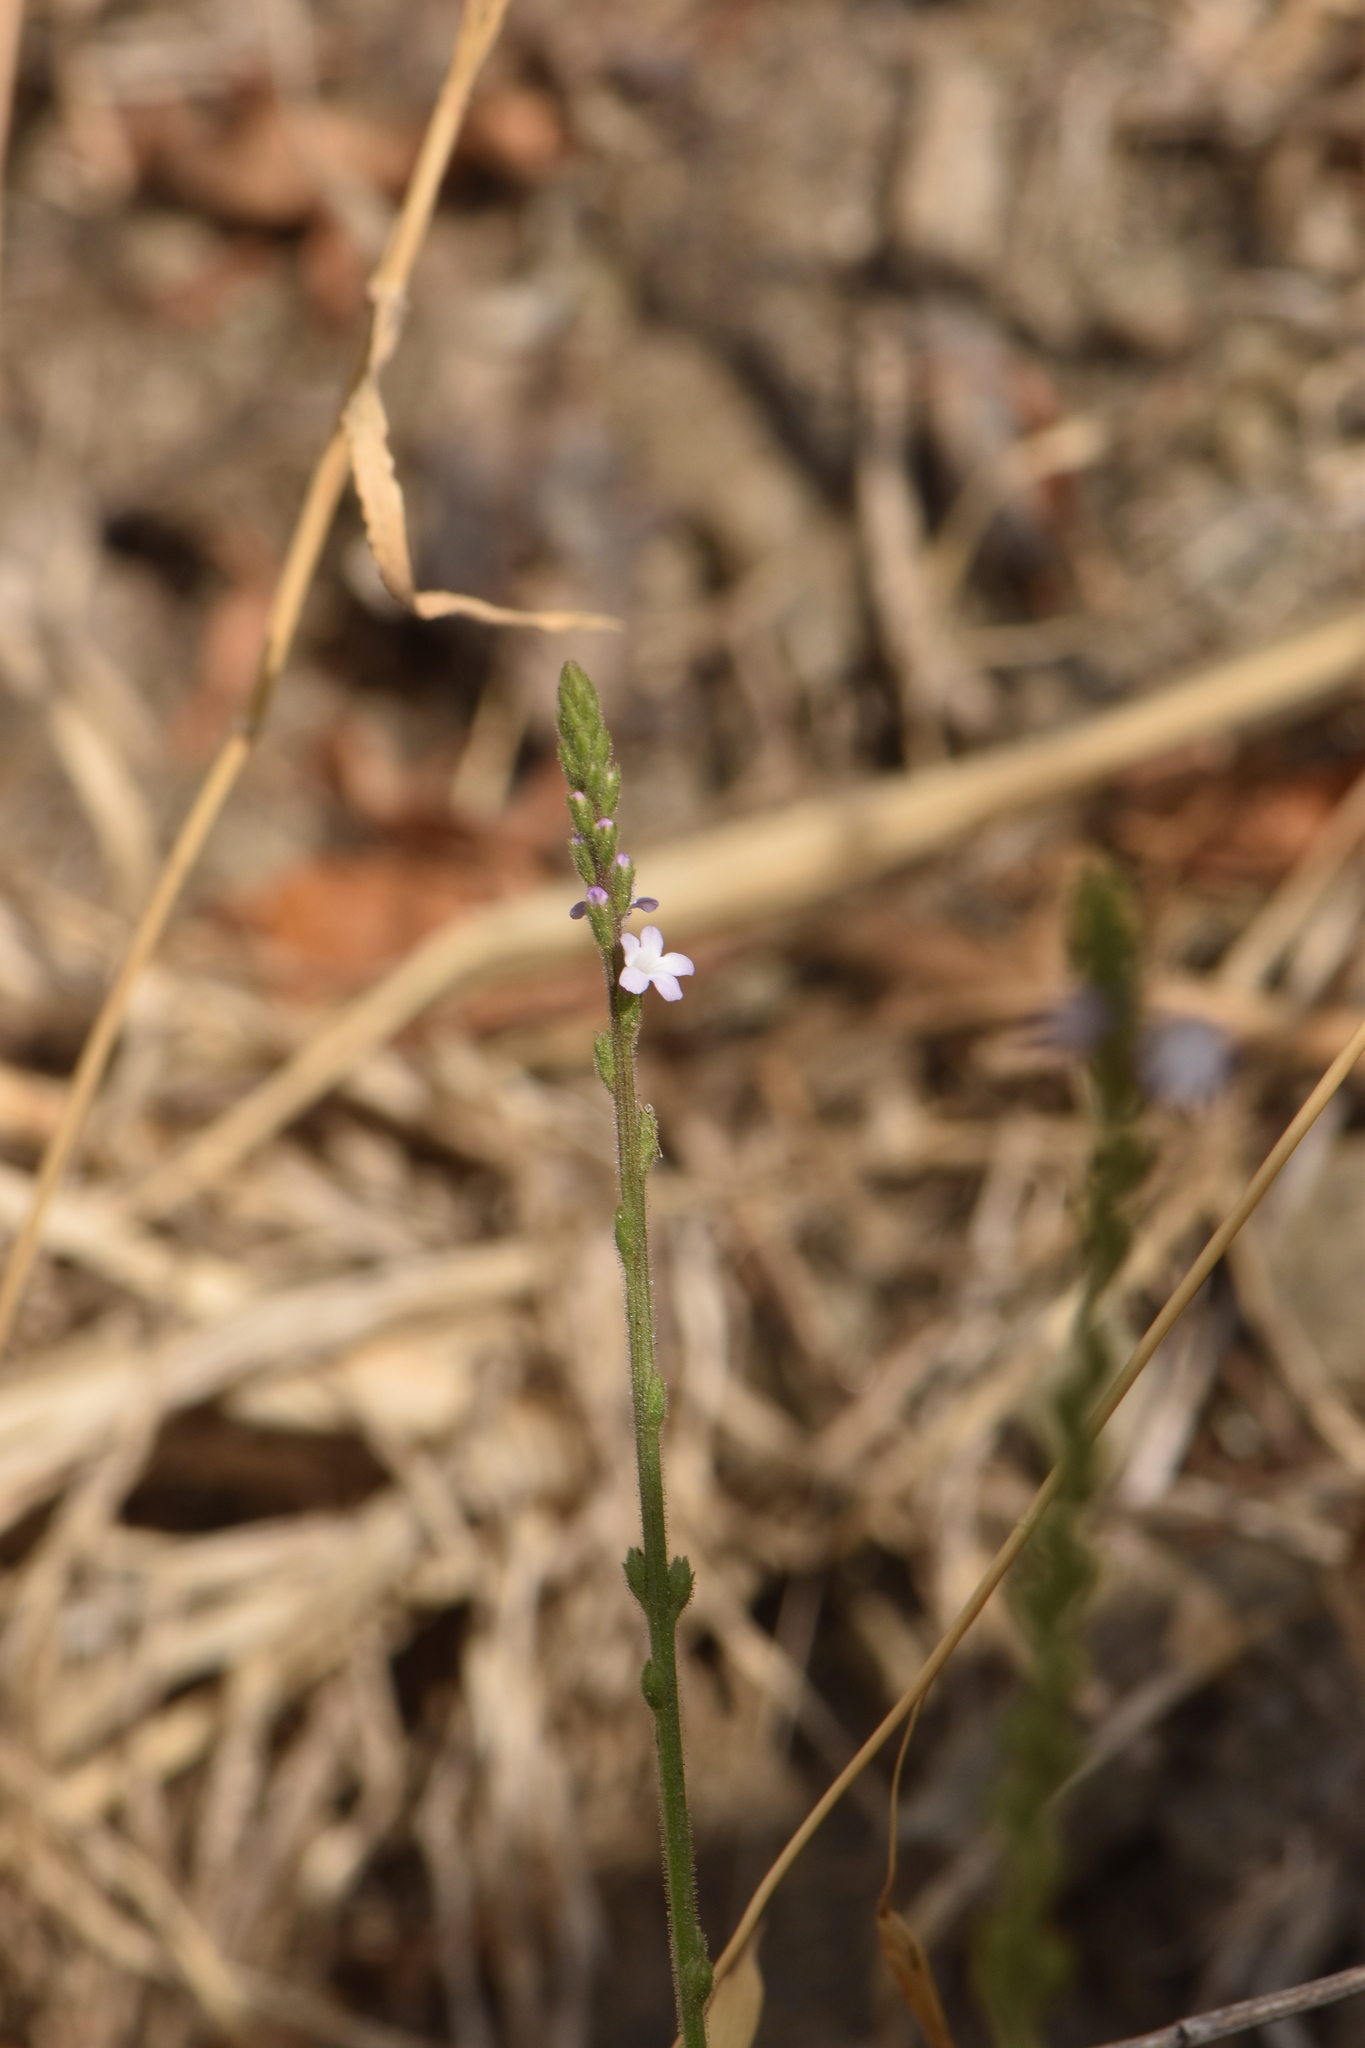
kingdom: Plantae
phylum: Tracheophyta
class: Magnoliopsida
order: Lamiales
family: Verbenaceae
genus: Verbena
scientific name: Verbena officinalis
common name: Vervain
